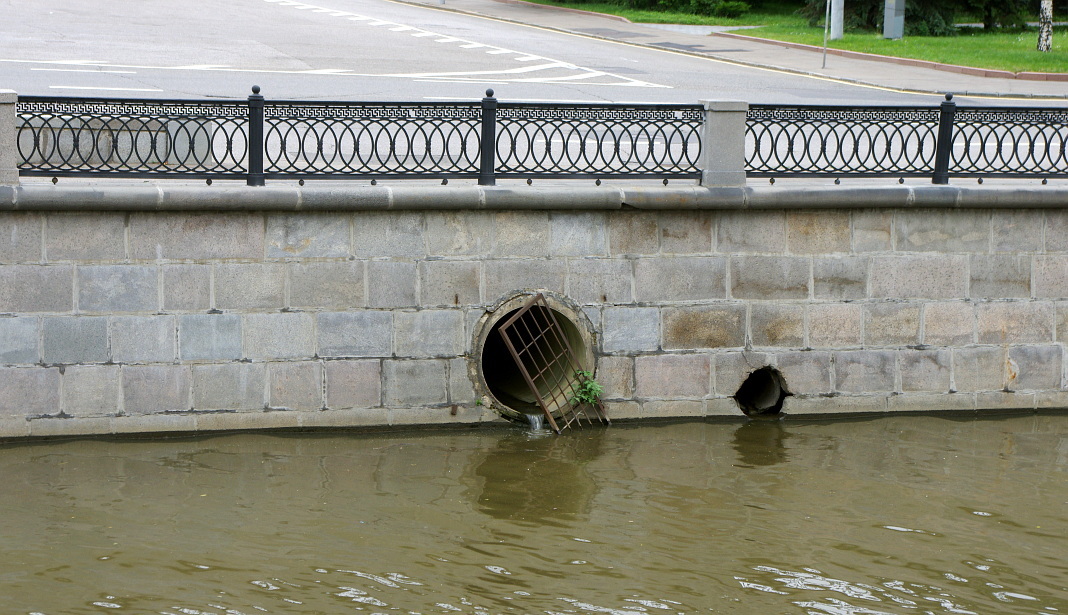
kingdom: Plantae
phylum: Tracheophyta
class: Magnoliopsida
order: Solanales
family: Solanaceae
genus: Solanum
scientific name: Solanum lycopersicum
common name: Garden tomato
